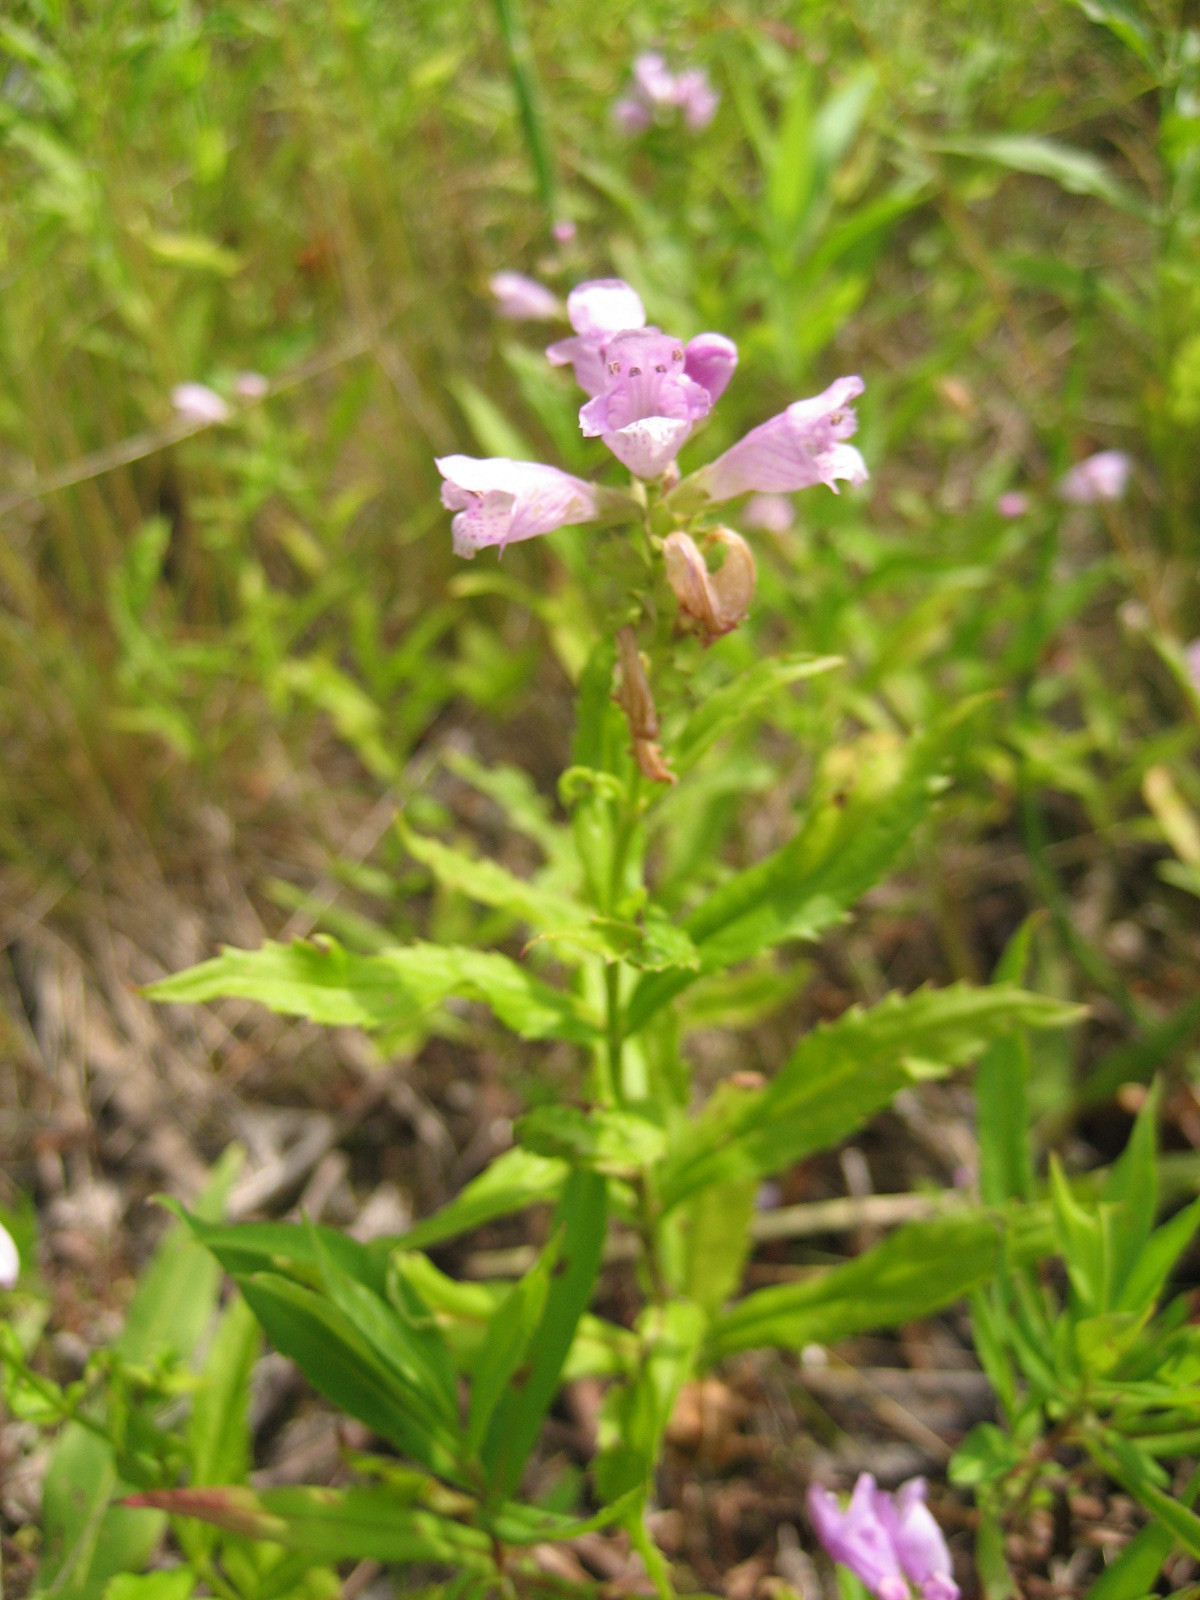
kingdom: Plantae
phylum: Tracheophyta
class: Magnoliopsida
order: Lamiales
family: Lamiaceae
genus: Physostegia
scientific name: Physostegia virginiana
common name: Obedient-plant
